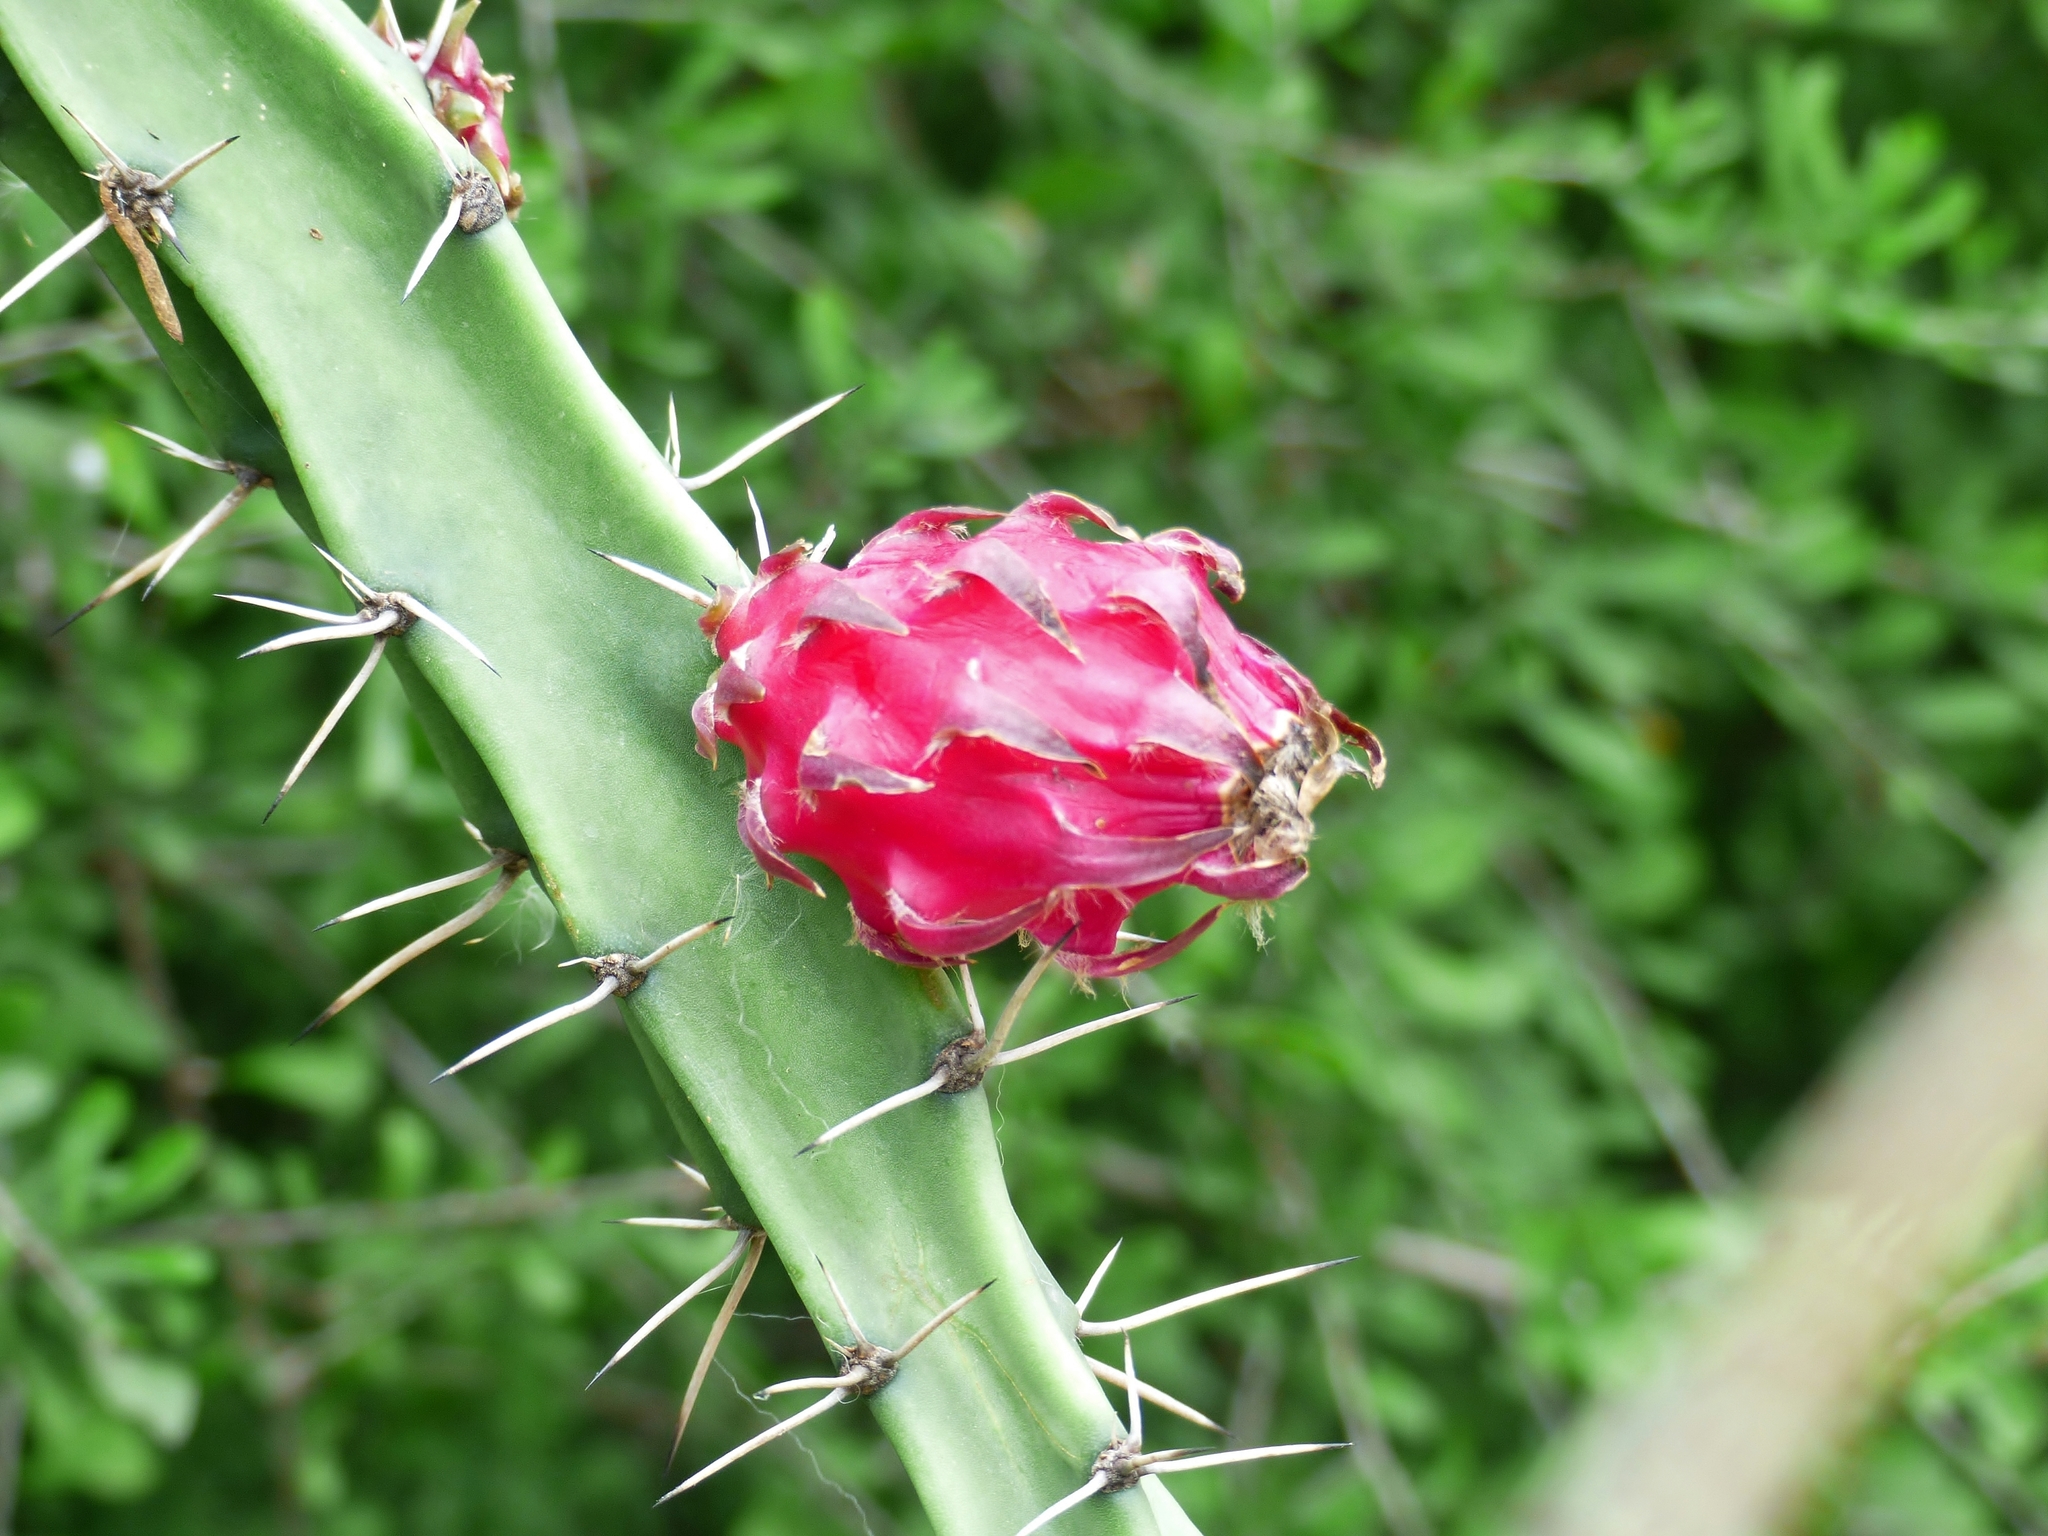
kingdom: Plantae
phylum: Tracheophyta
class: Magnoliopsida
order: Caryophyllales
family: Cactaceae
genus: Harrisia
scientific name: Harrisia bonplandii
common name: Queen of the night cactus
